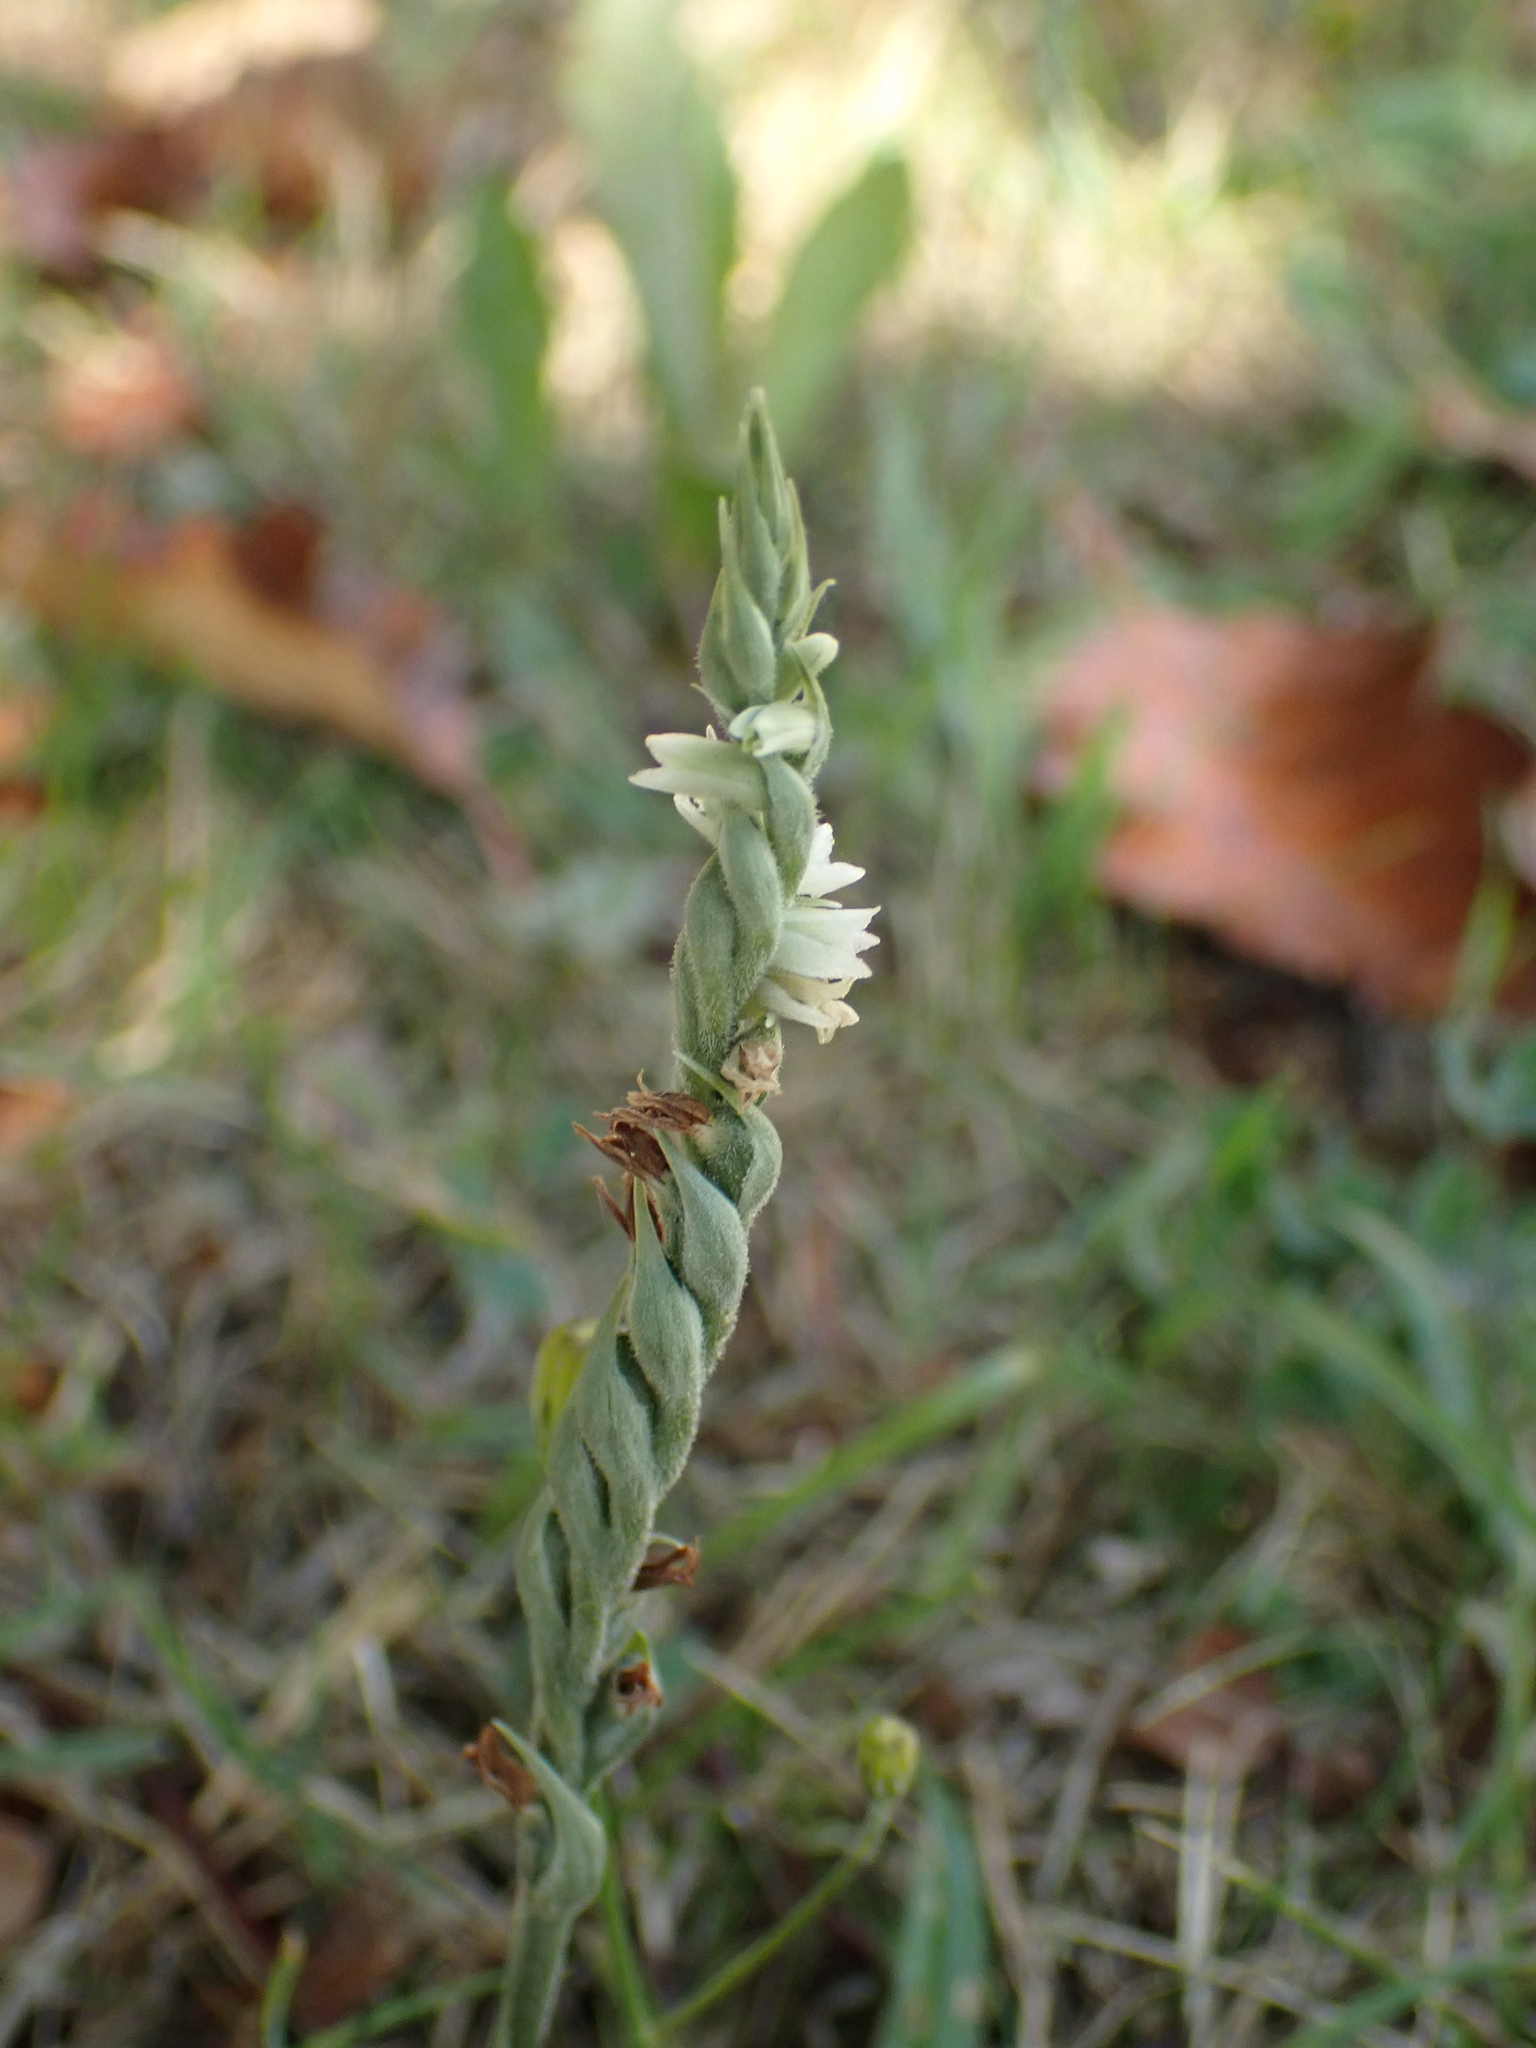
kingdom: Plantae
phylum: Tracheophyta
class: Liliopsida
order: Asparagales
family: Orchidaceae
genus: Spiranthes
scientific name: Spiranthes spiralis
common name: Autumn lady's-tresses
